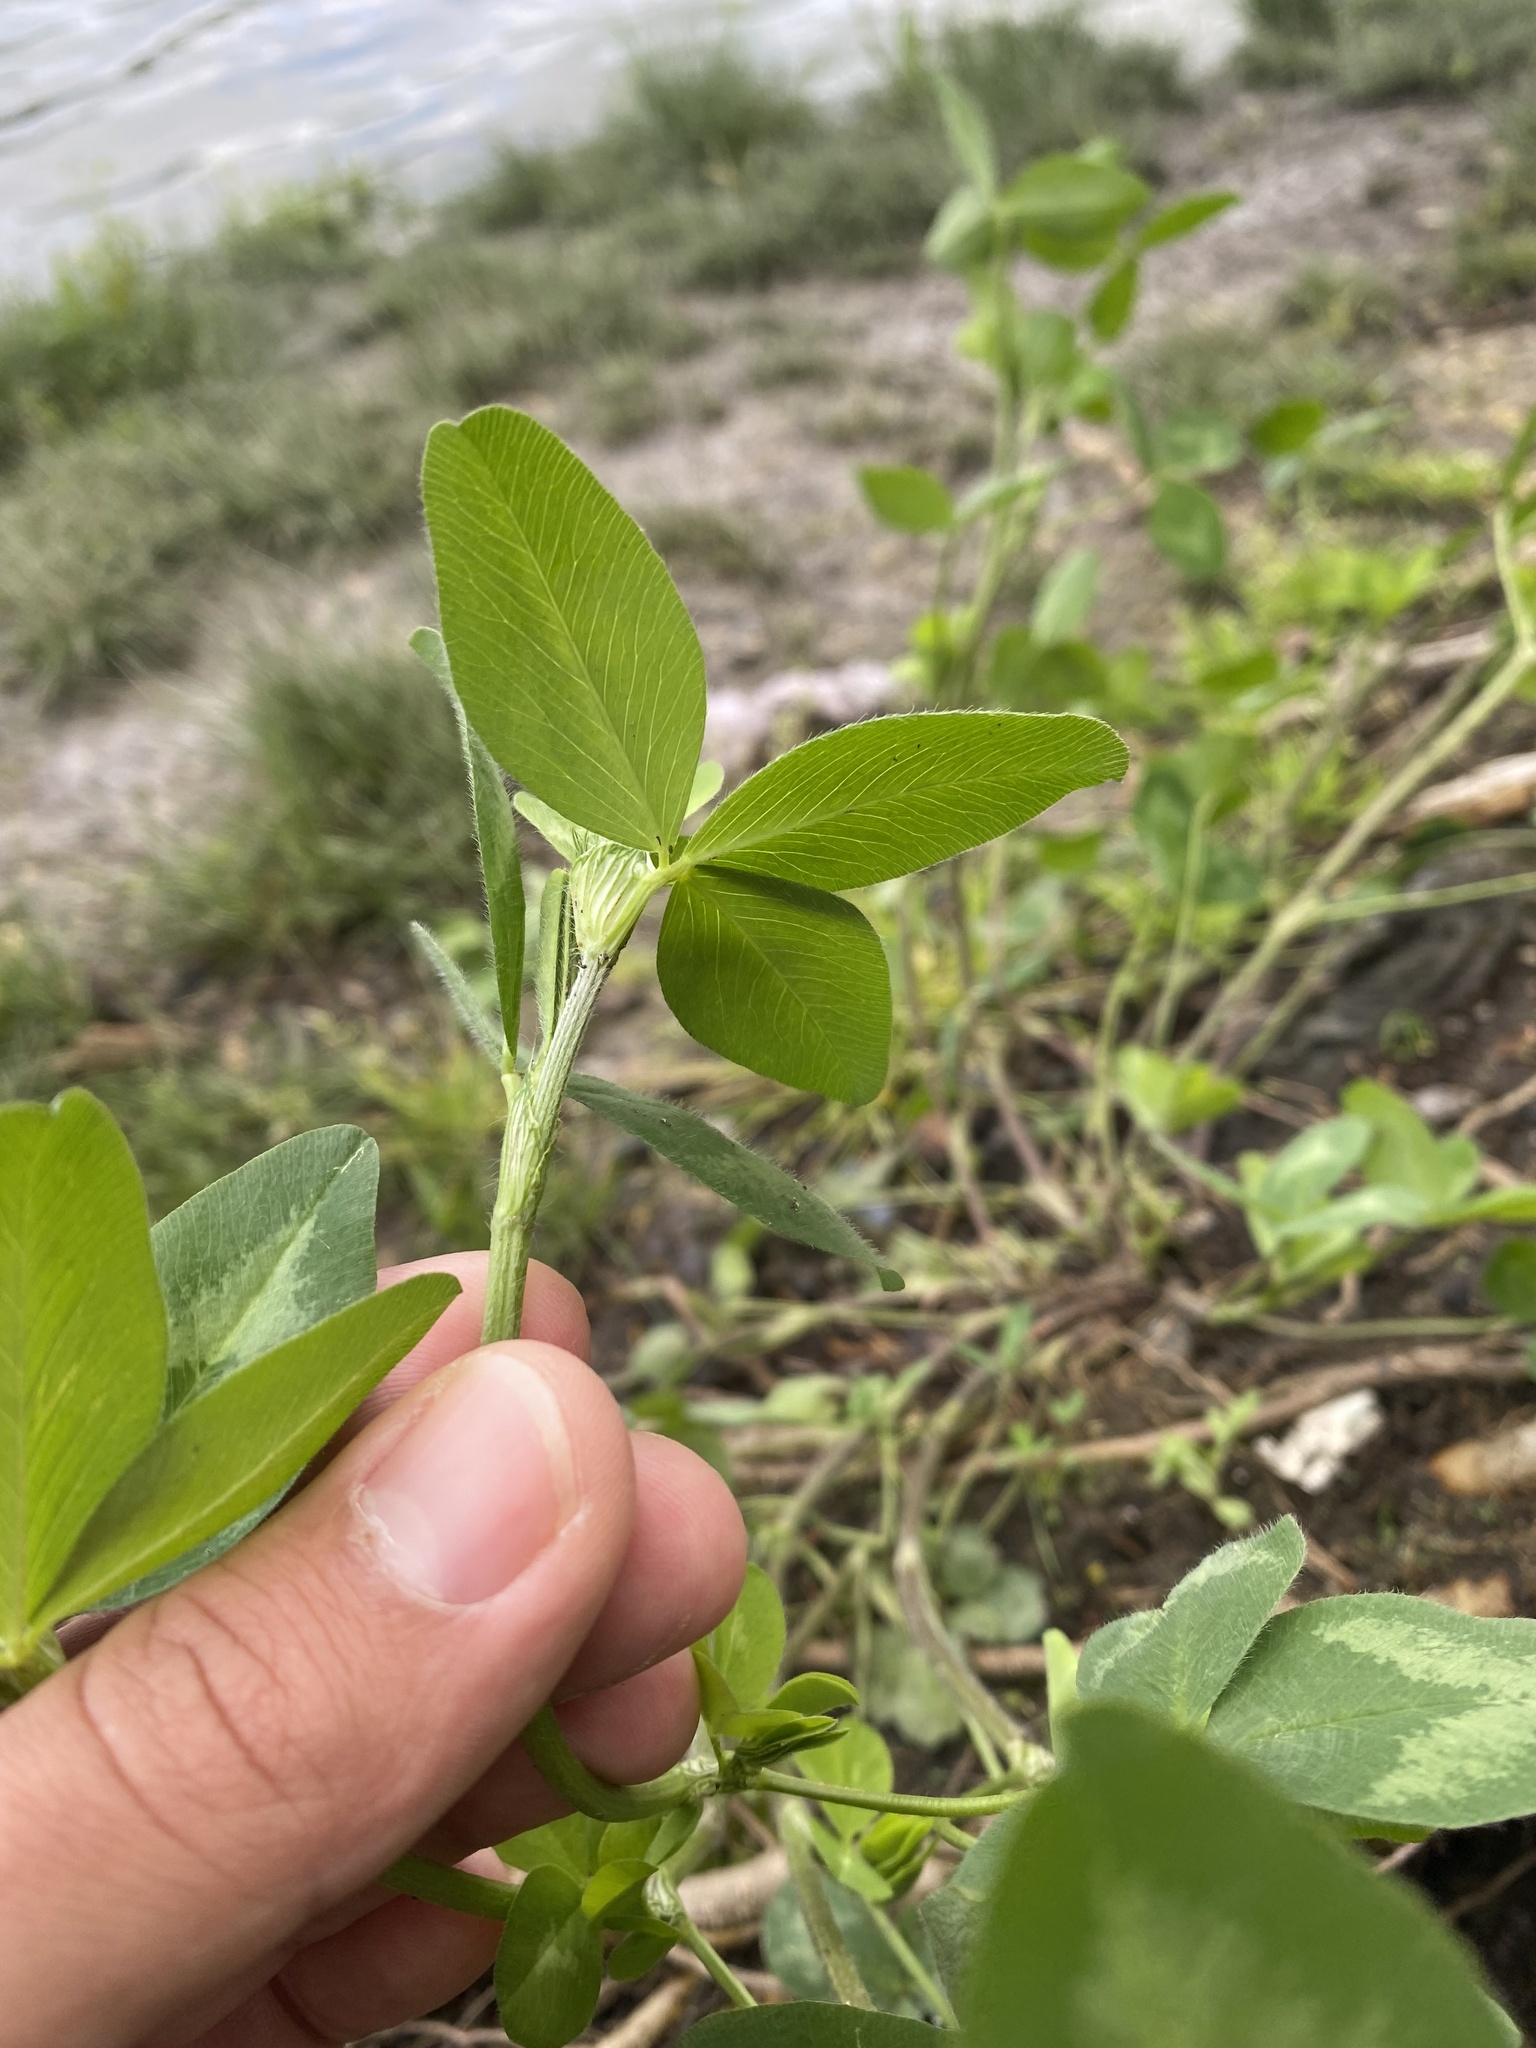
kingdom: Plantae
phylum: Tracheophyta
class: Magnoliopsida
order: Fabales
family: Fabaceae
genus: Trifolium
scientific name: Trifolium pratense
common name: Red clover
